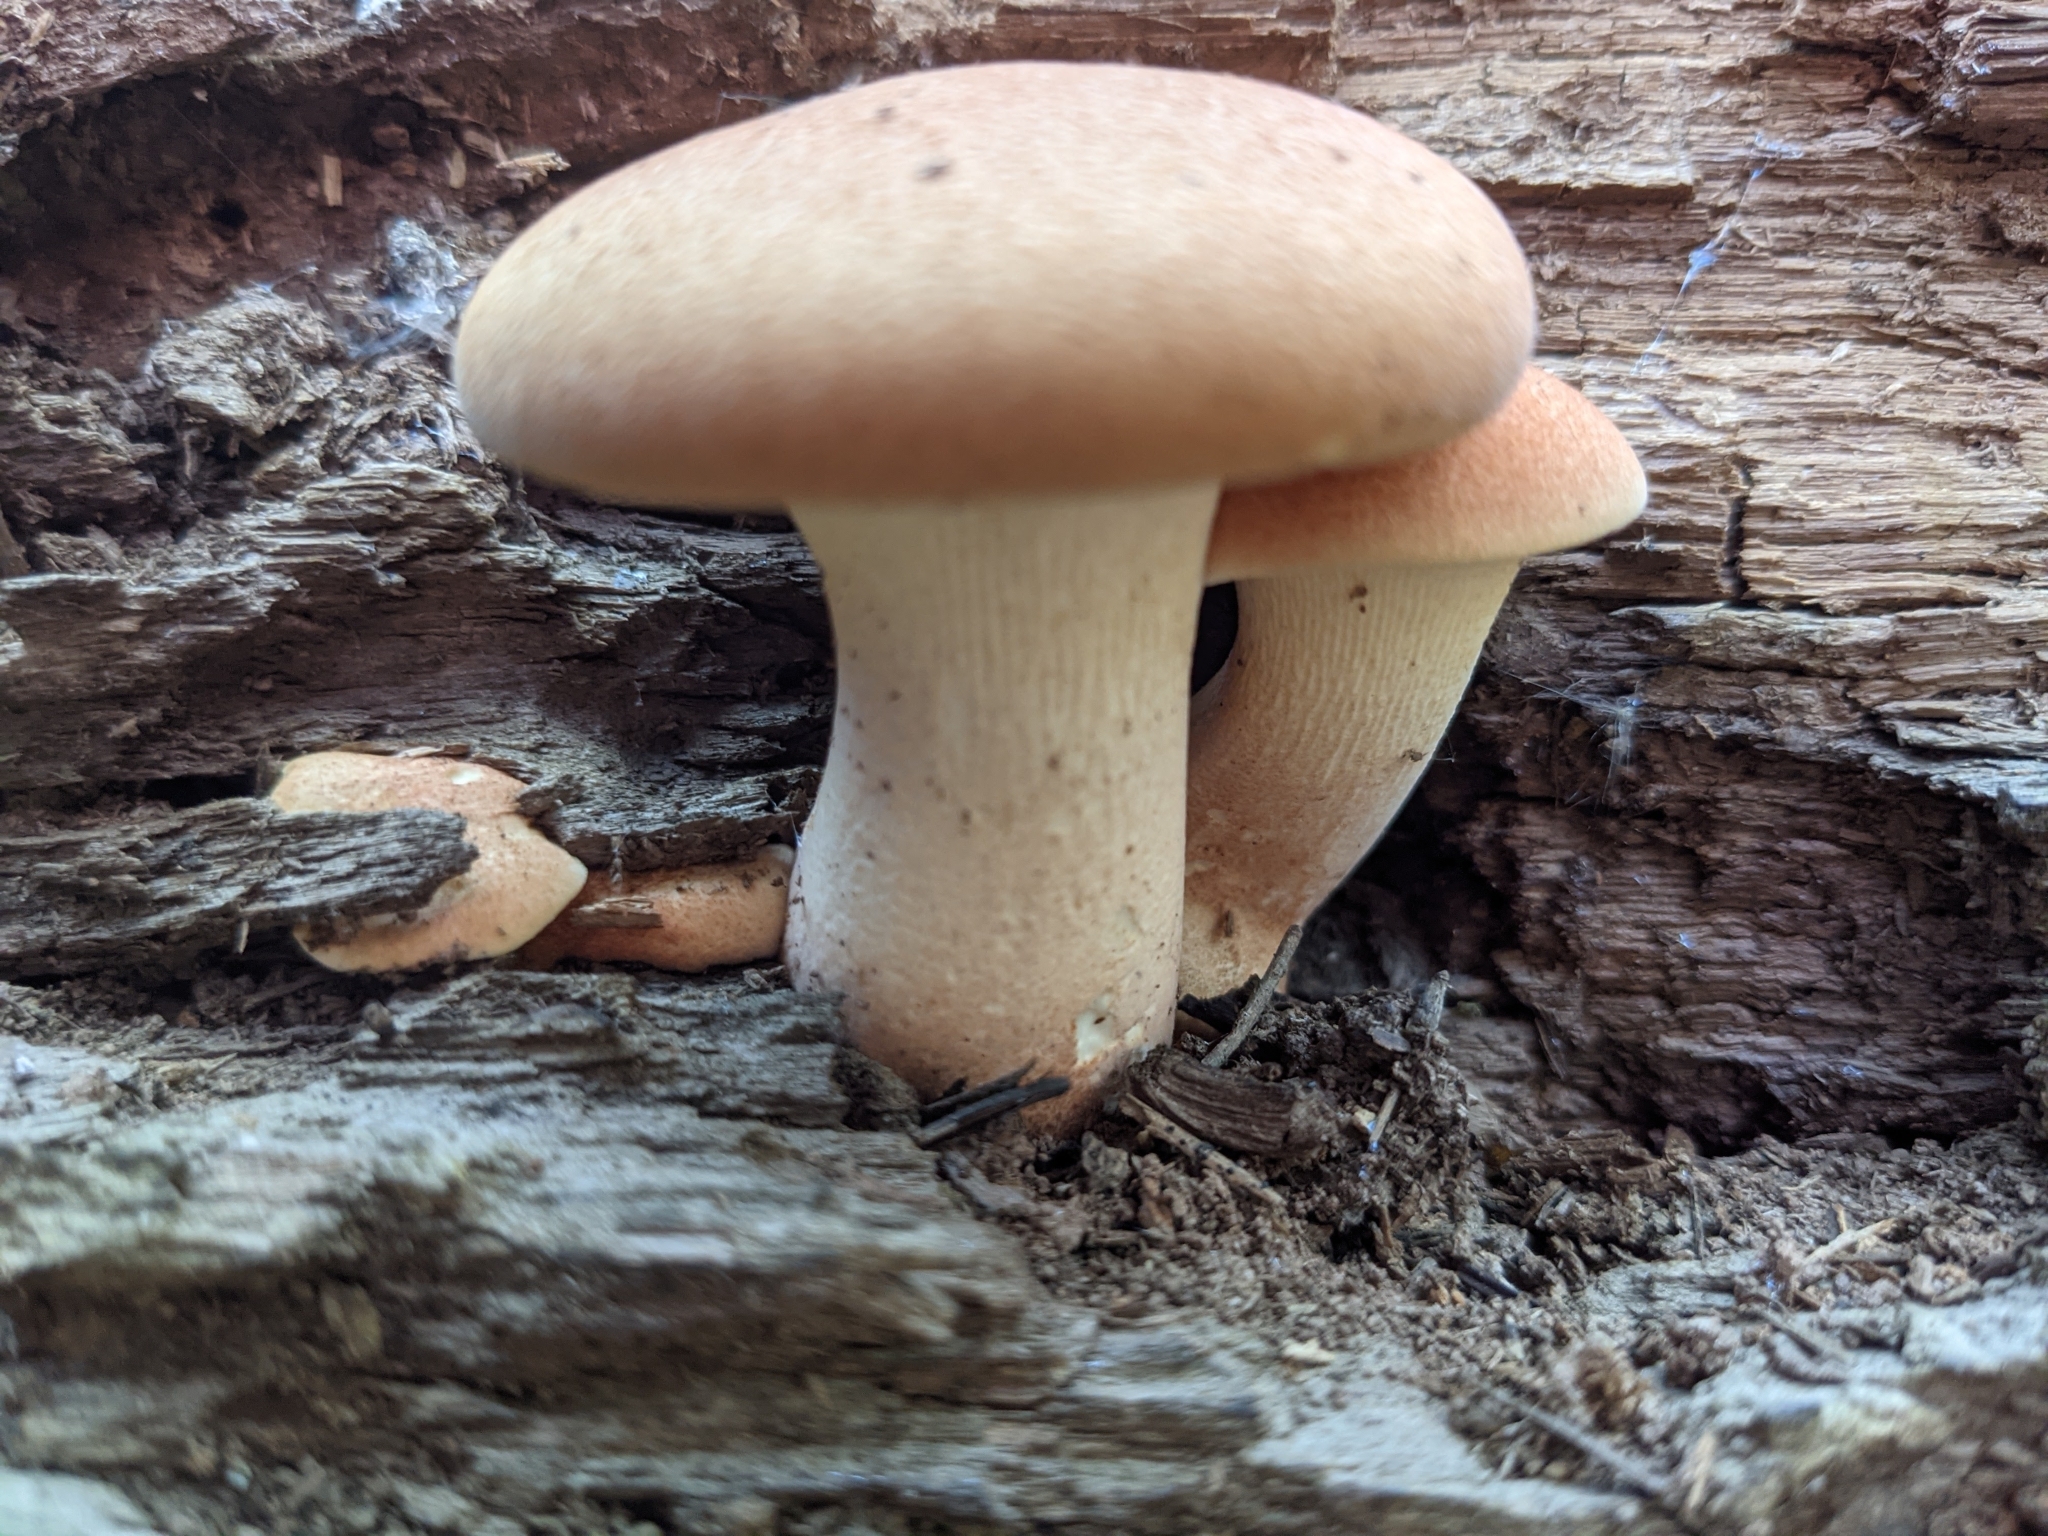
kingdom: Fungi
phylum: Basidiomycota
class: Agaricomycetes
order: Gloeophyllales
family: Gloeophyllaceae
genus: Neolentinus
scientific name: Neolentinus cyathiformis
